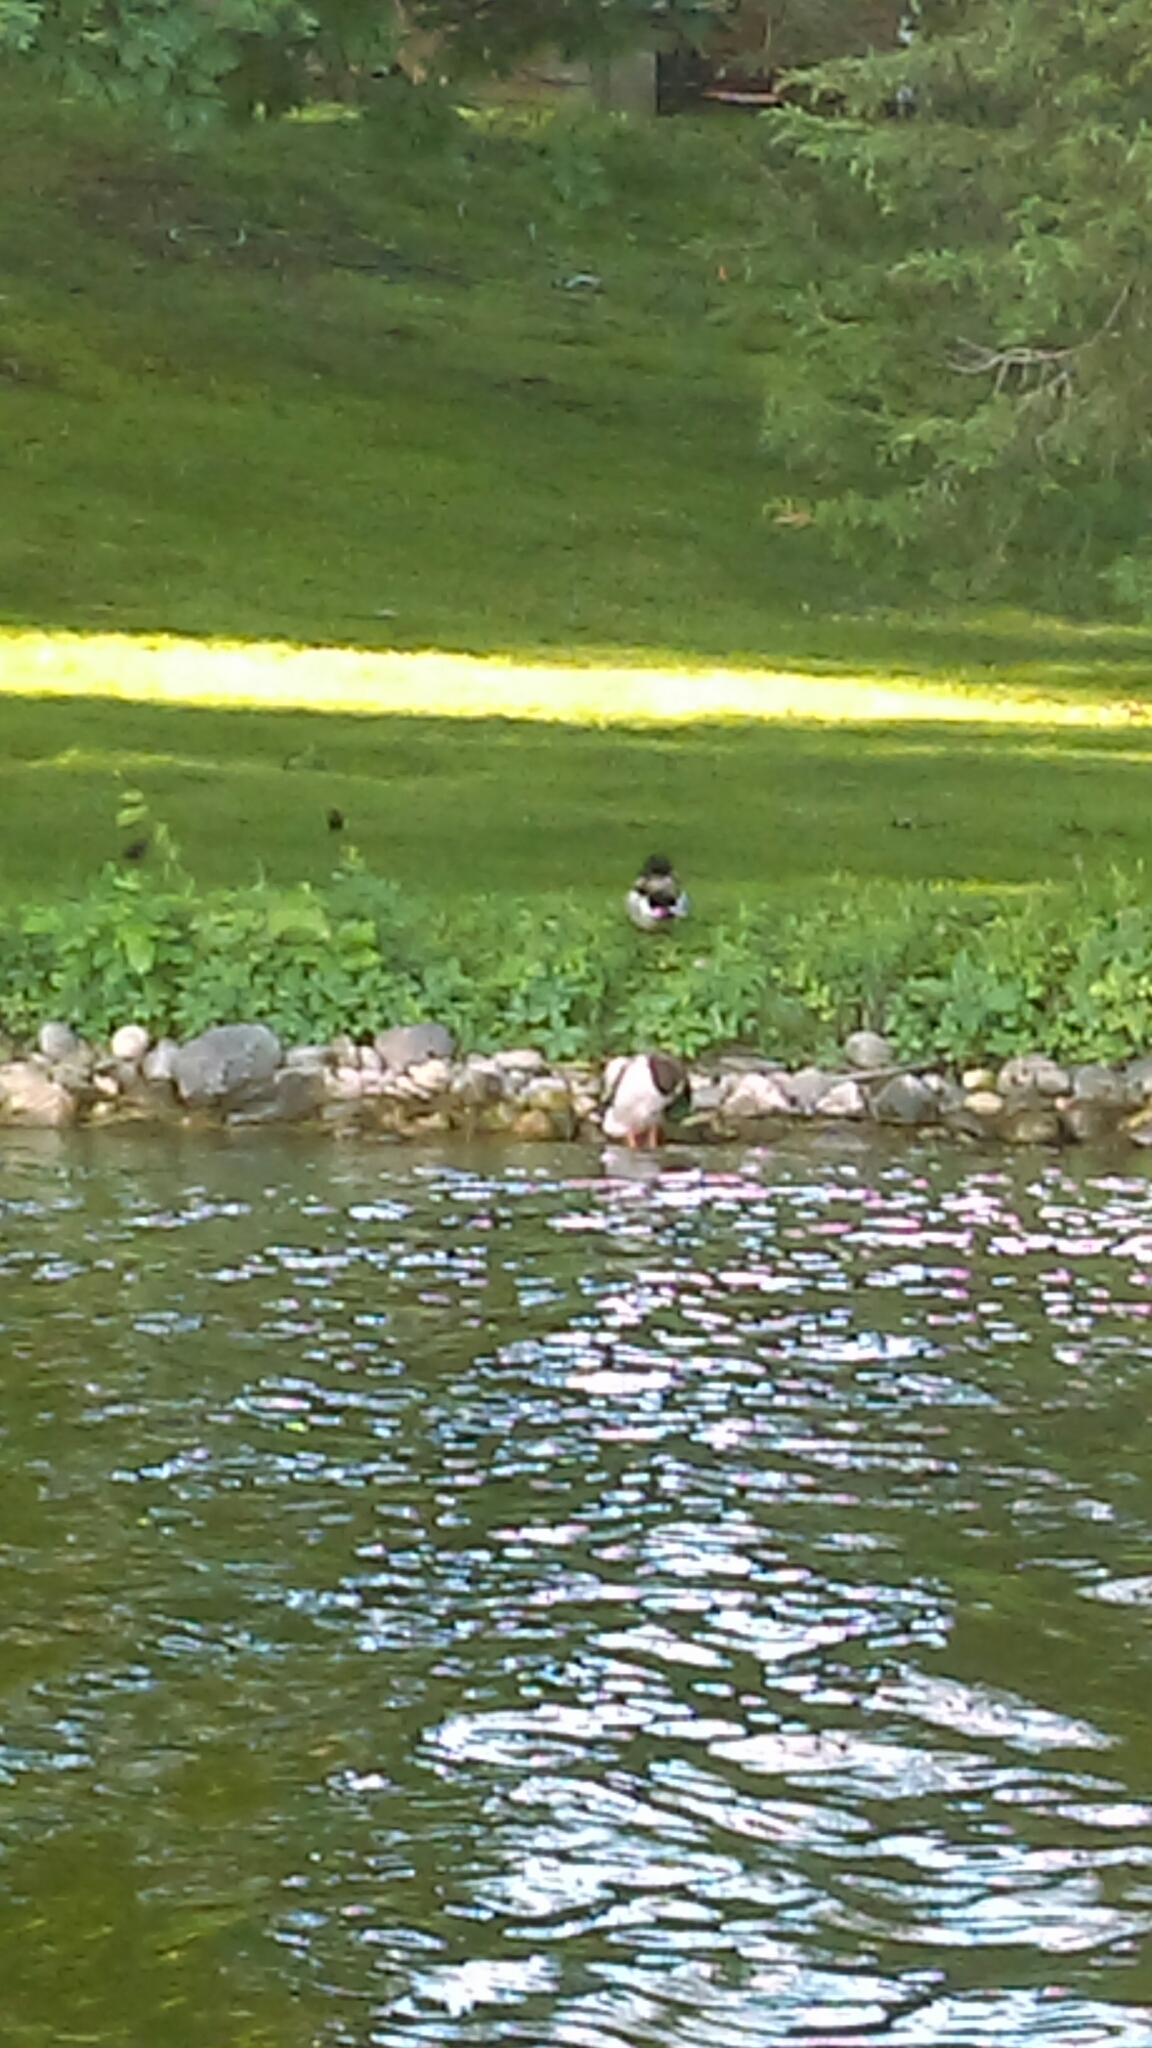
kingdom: Animalia
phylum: Chordata
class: Aves
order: Anseriformes
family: Anatidae
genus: Anas
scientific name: Anas platyrhynchos
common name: Mallard
